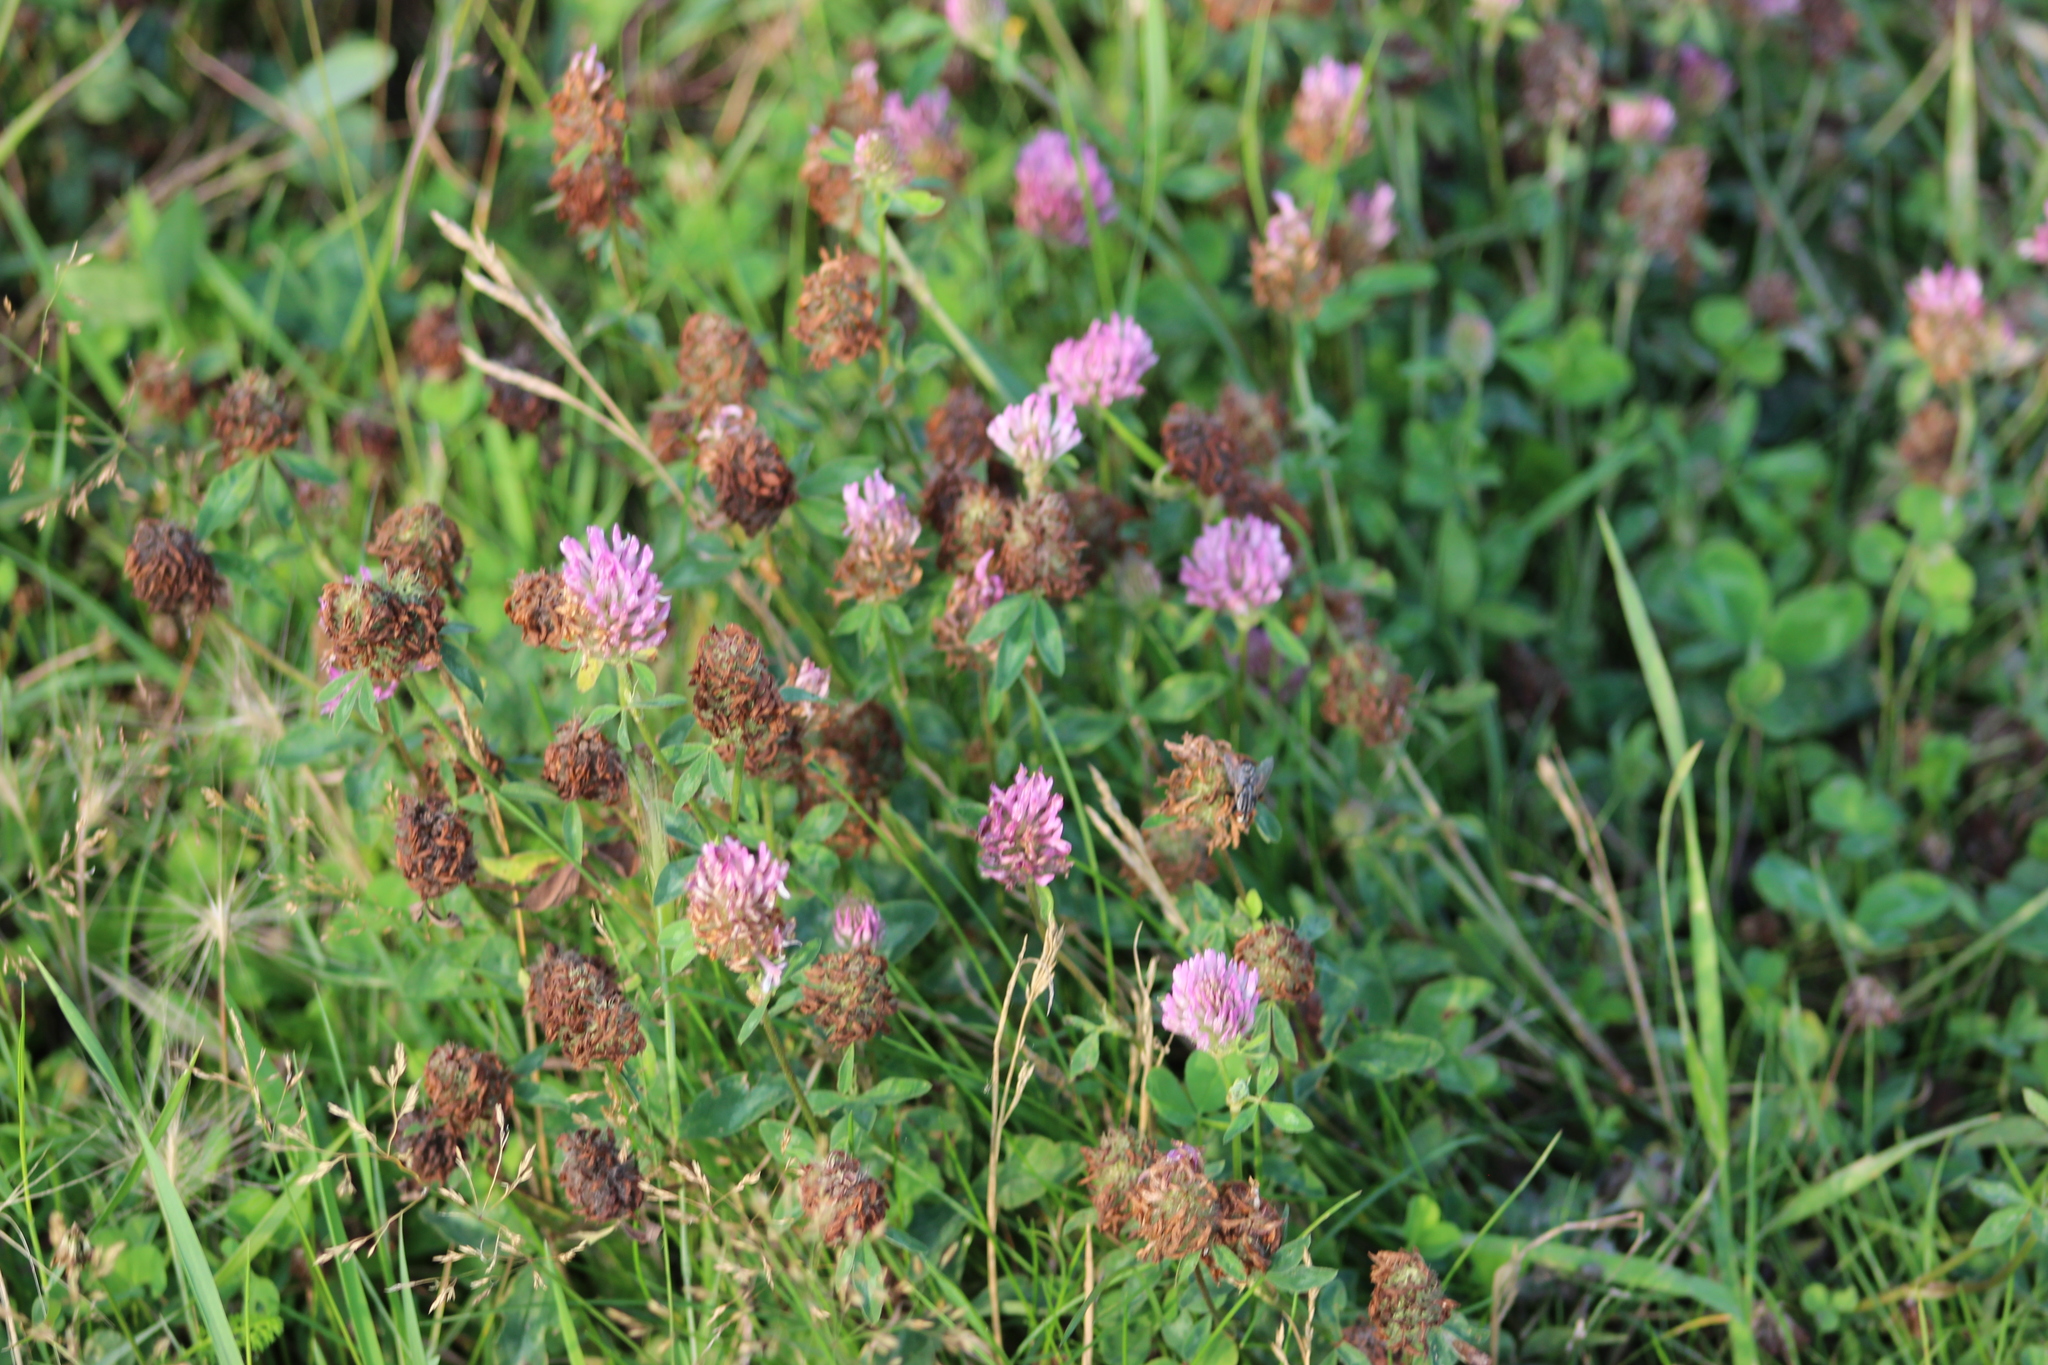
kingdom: Plantae
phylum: Tracheophyta
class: Magnoliopsida
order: Fabales
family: Fabaceae
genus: Trifolium
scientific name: Trifolium pratense
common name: Red clover
